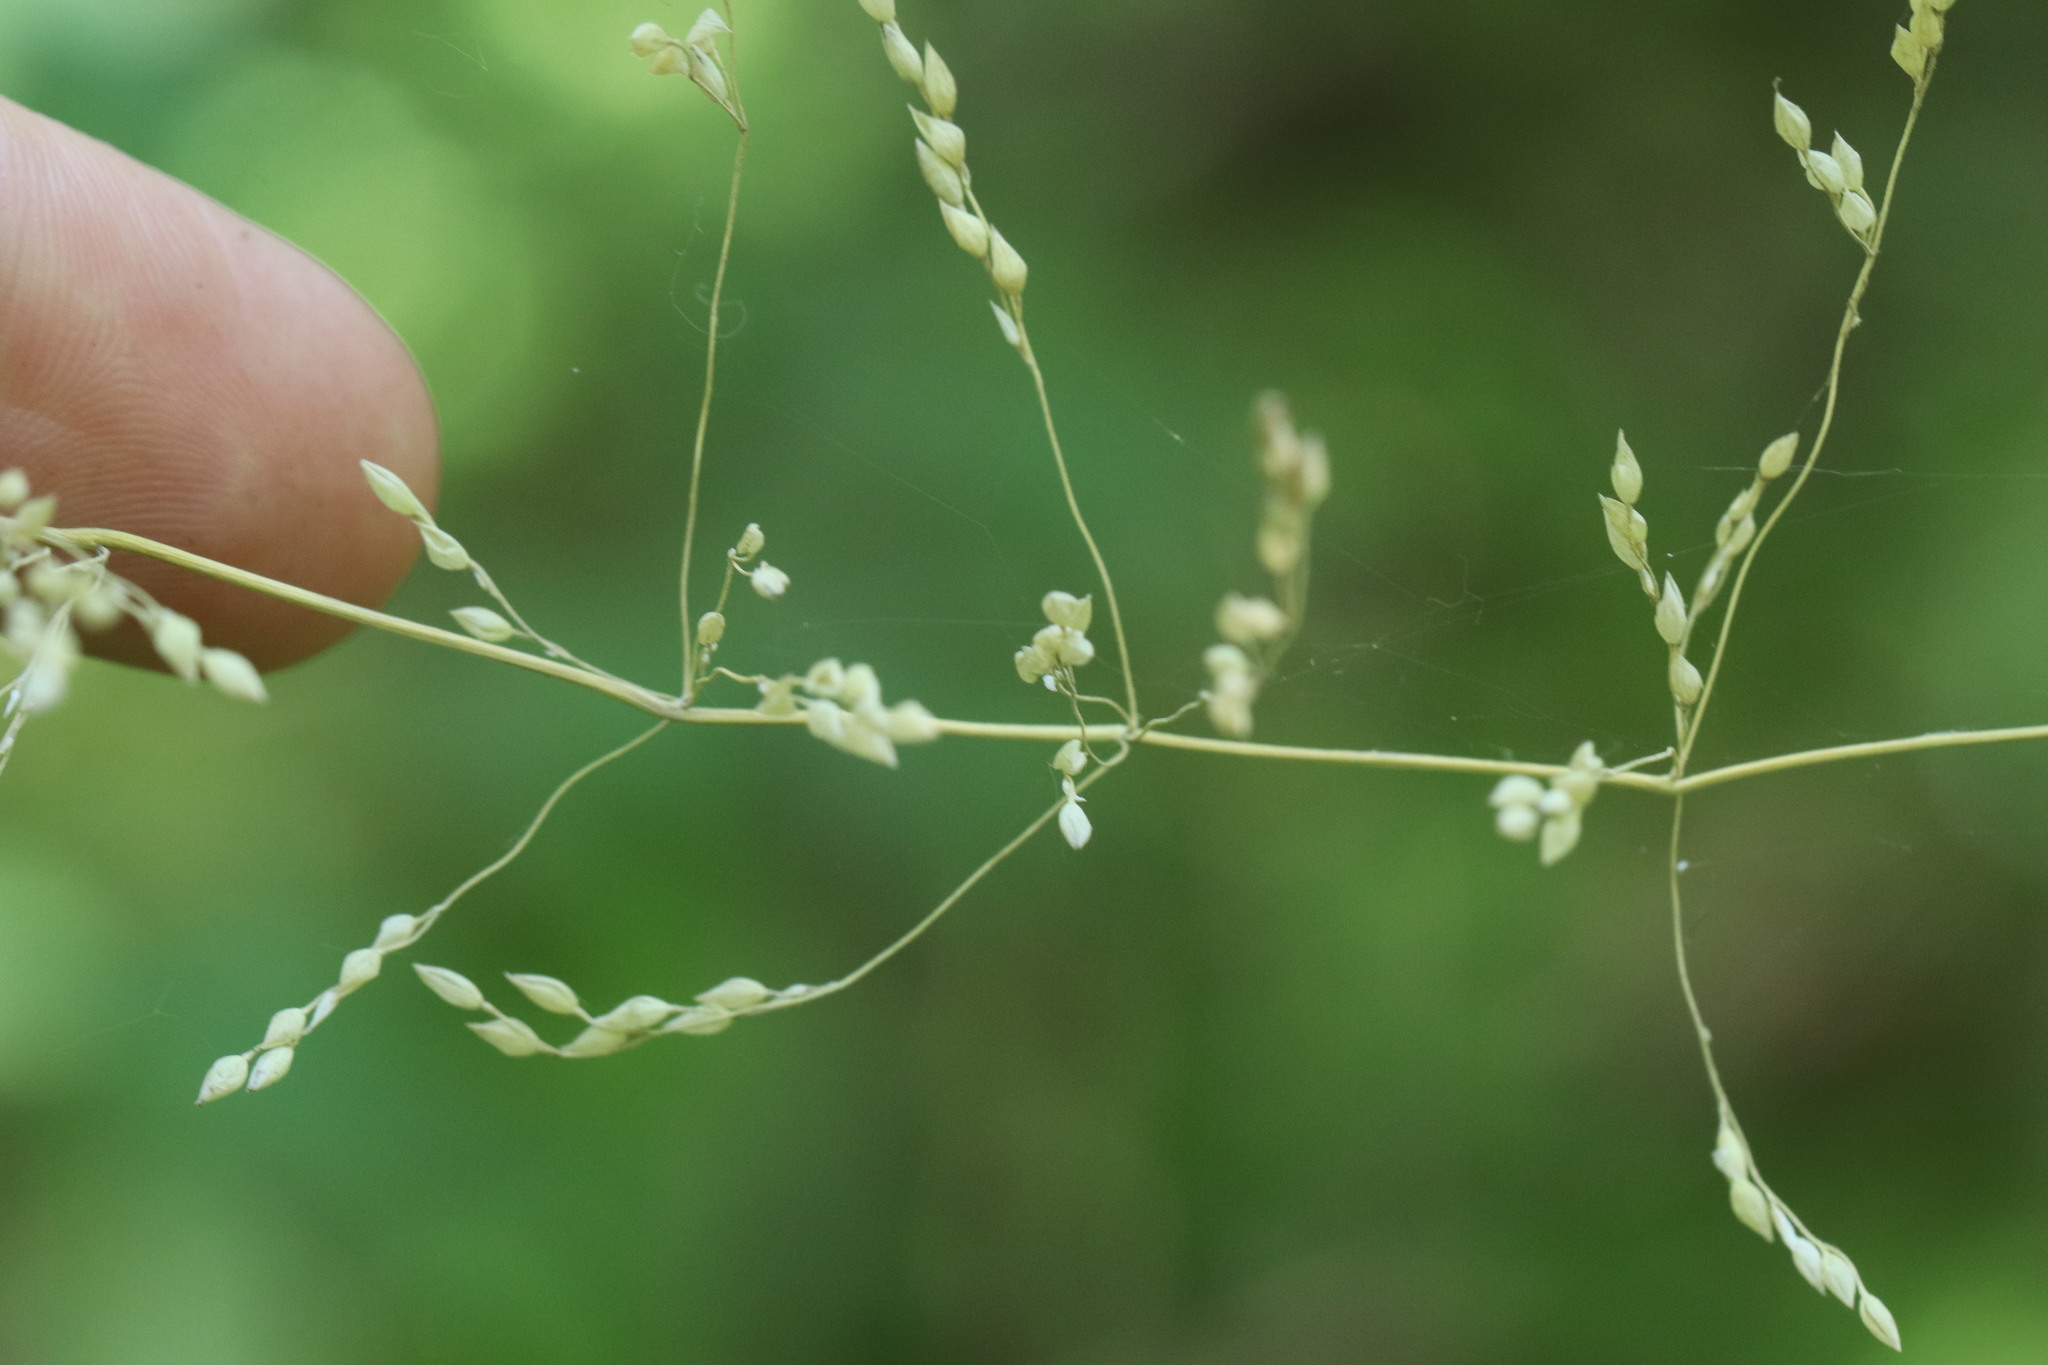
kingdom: Plantae
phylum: Tracheophyta
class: Liliopsida
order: Poales
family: Poaceae
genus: Milium
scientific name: Milium effusum
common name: Wood millet
